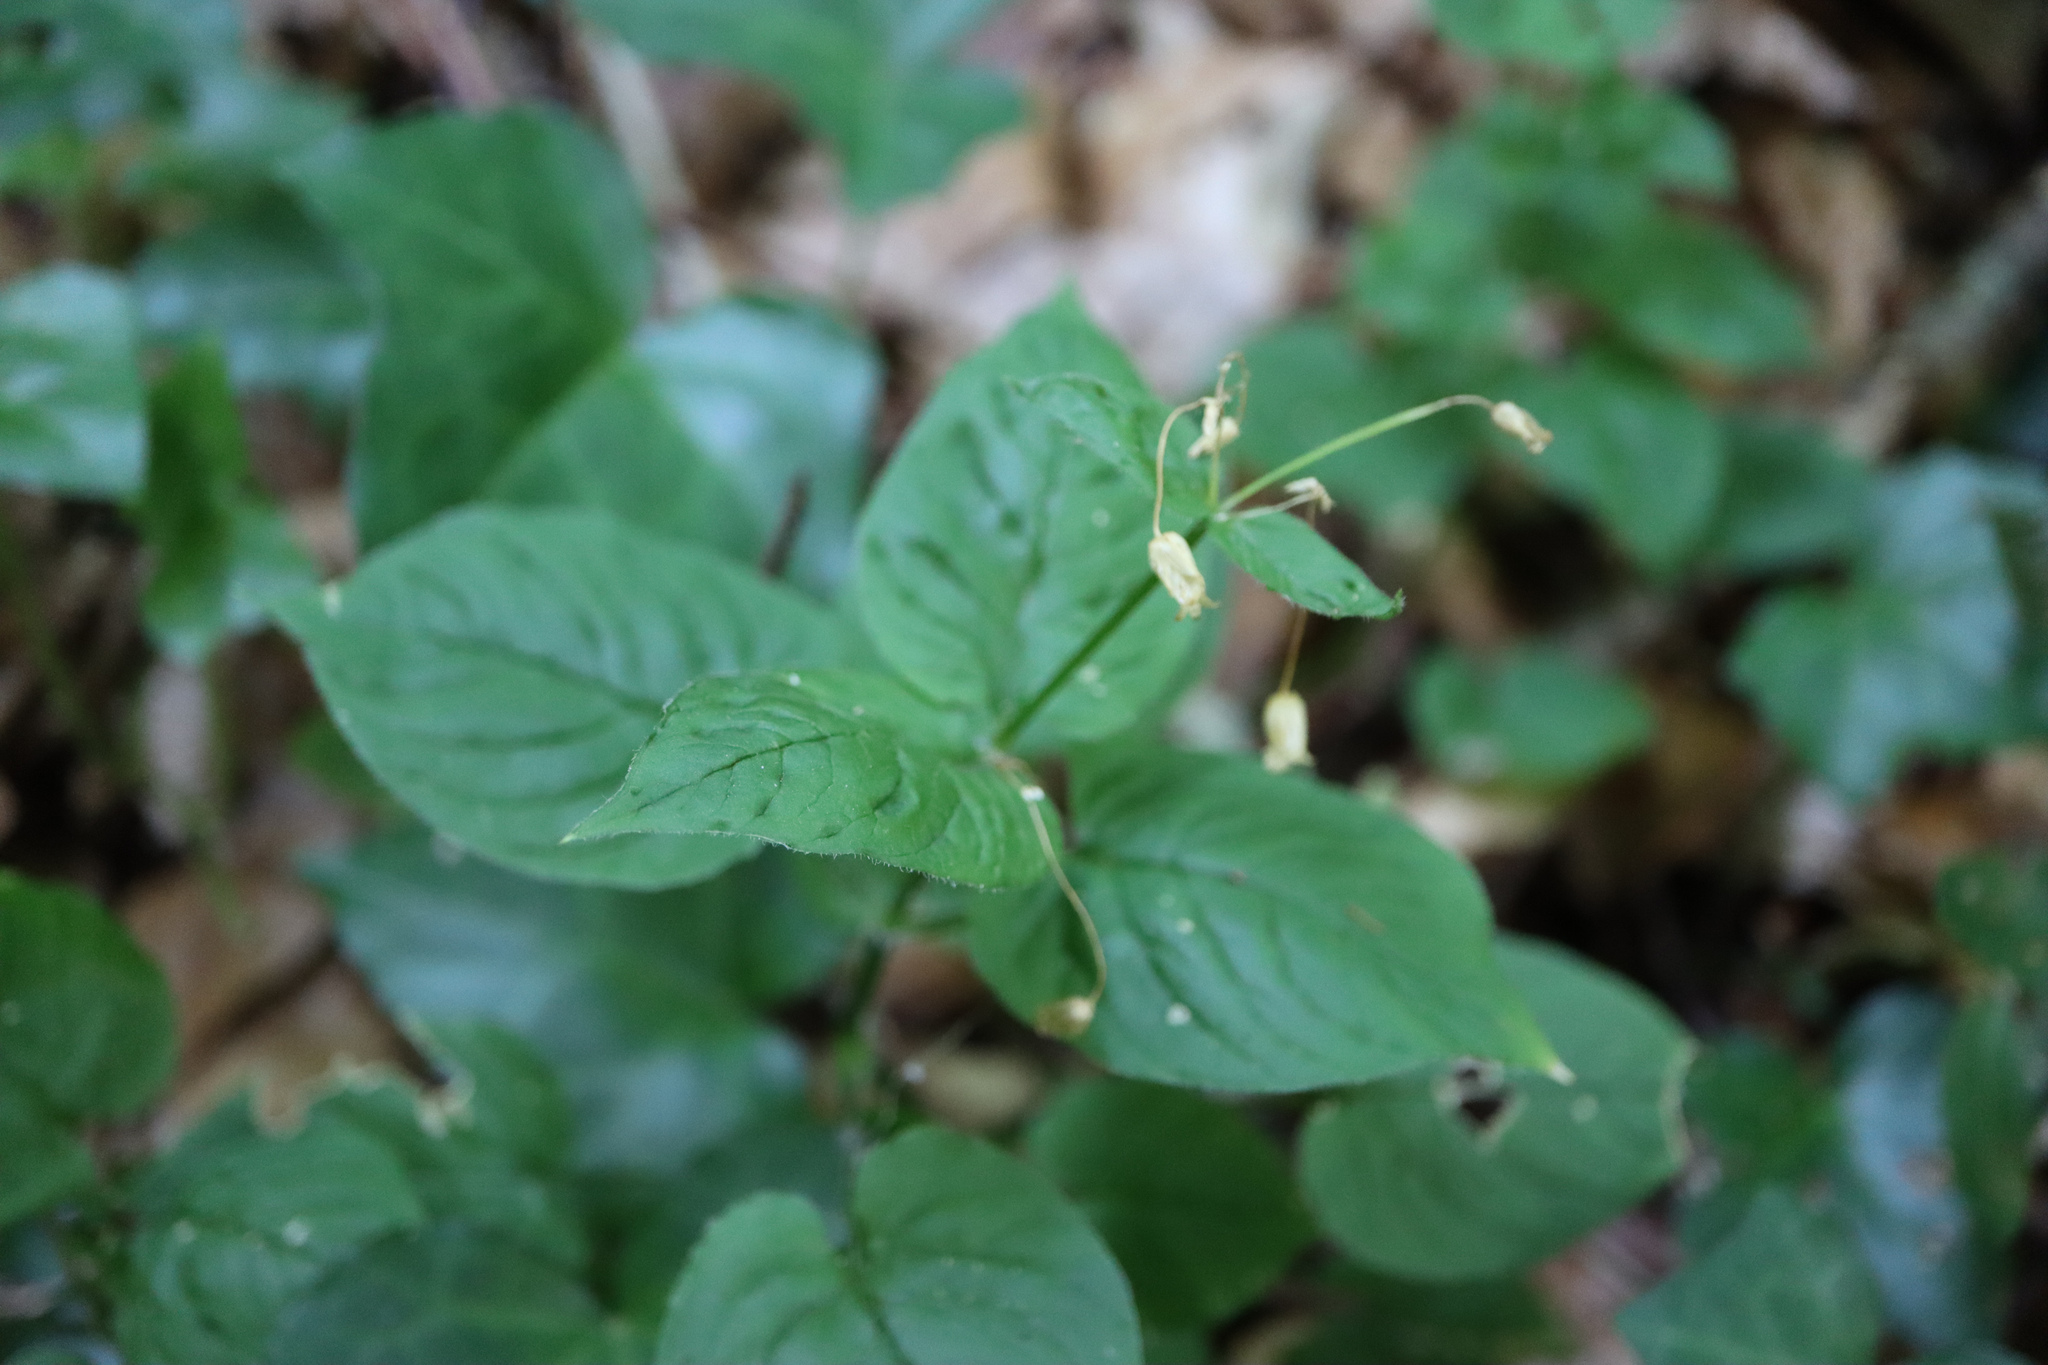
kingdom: Plantae
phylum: Tracheophyta
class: Magnoliopsida
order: Myrtales
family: Onagraceae
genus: Circaea
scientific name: Circaea lutetiana
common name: Enchanter's-nightshade
